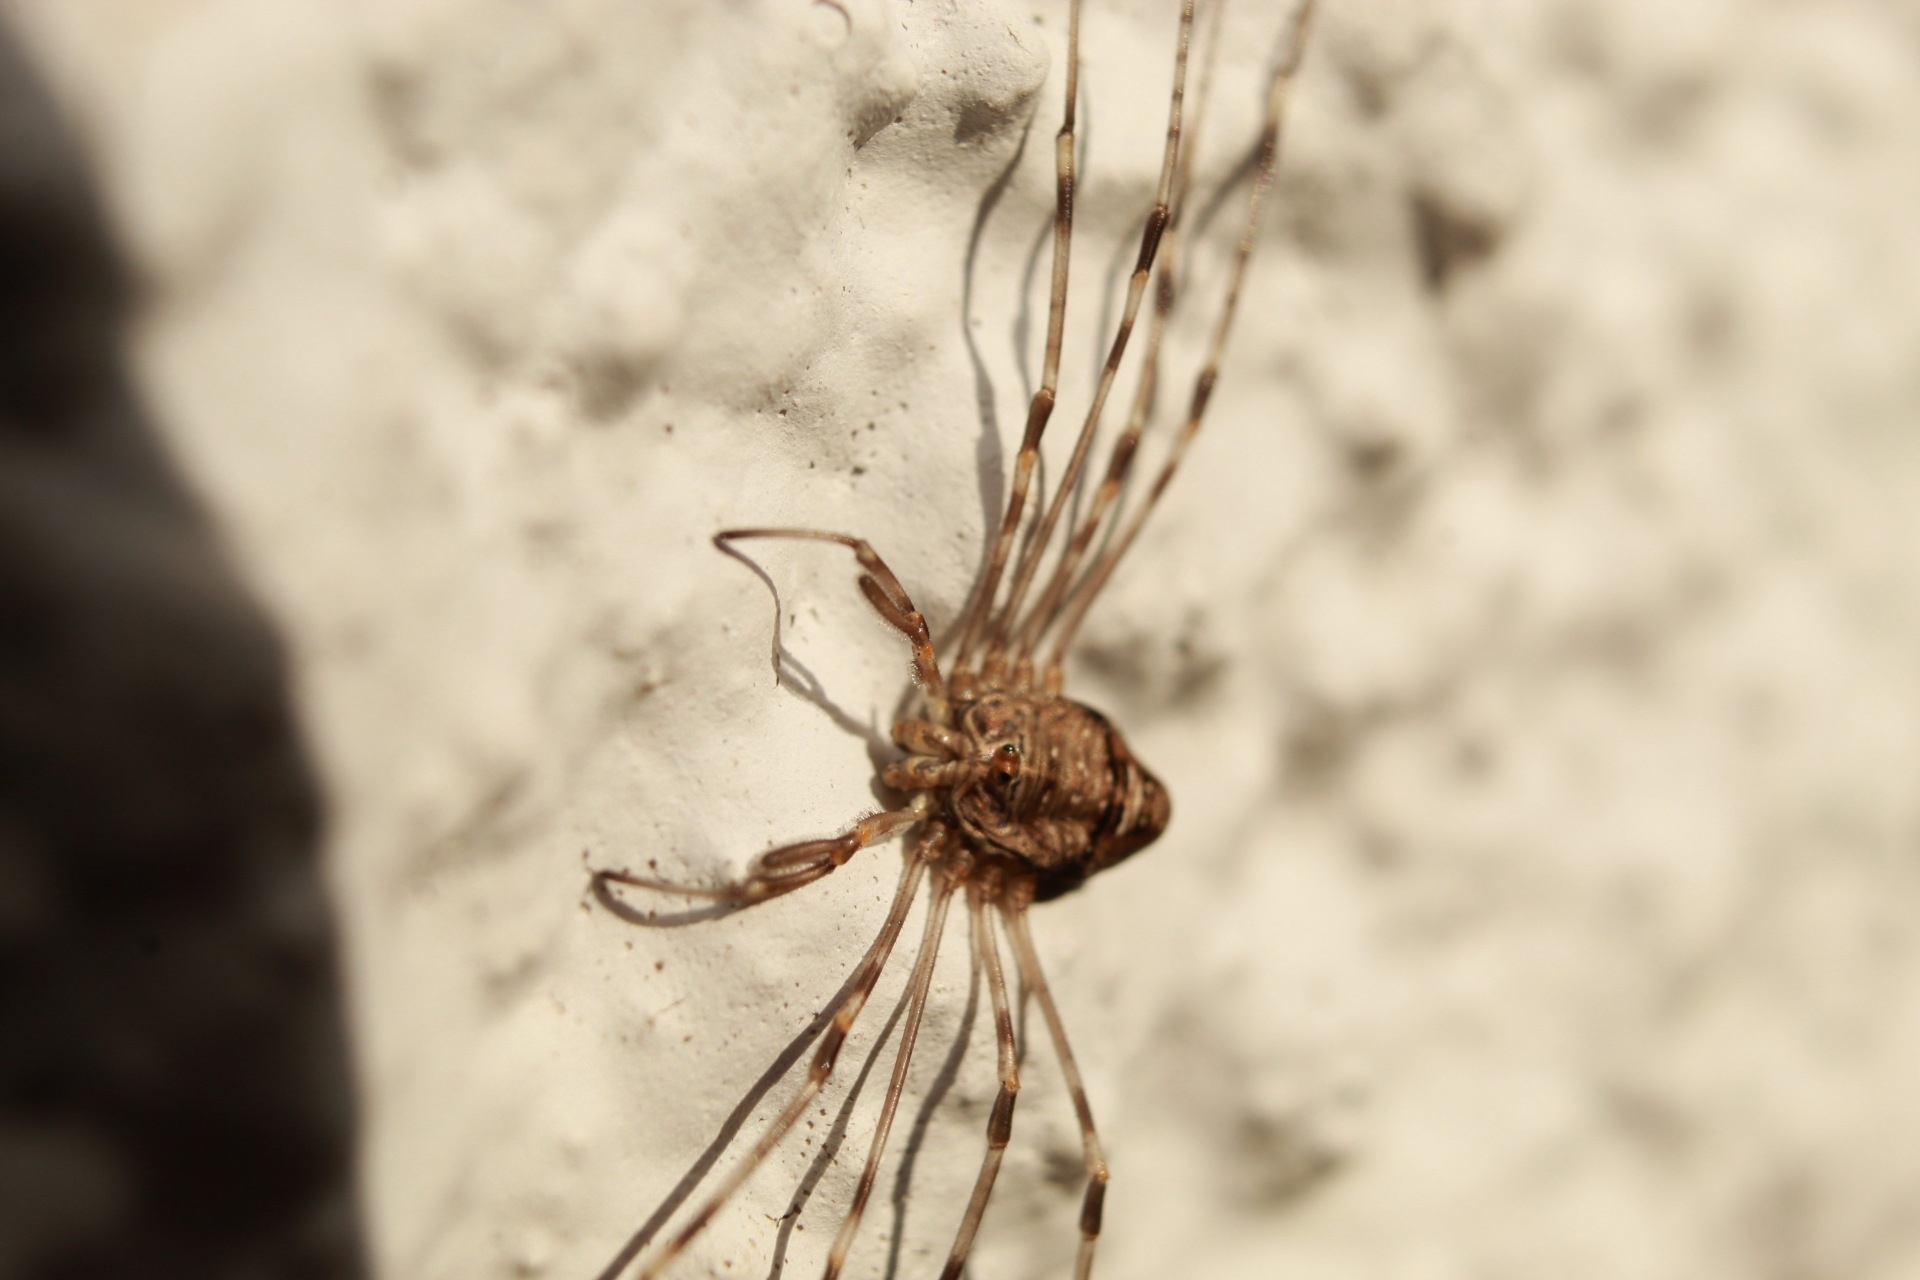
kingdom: Animalia
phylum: Arthropoda
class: Arachnida
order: Opiliones
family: Phalangiidae
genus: Dicranopalpus
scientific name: Dicranopalpus ramosus
